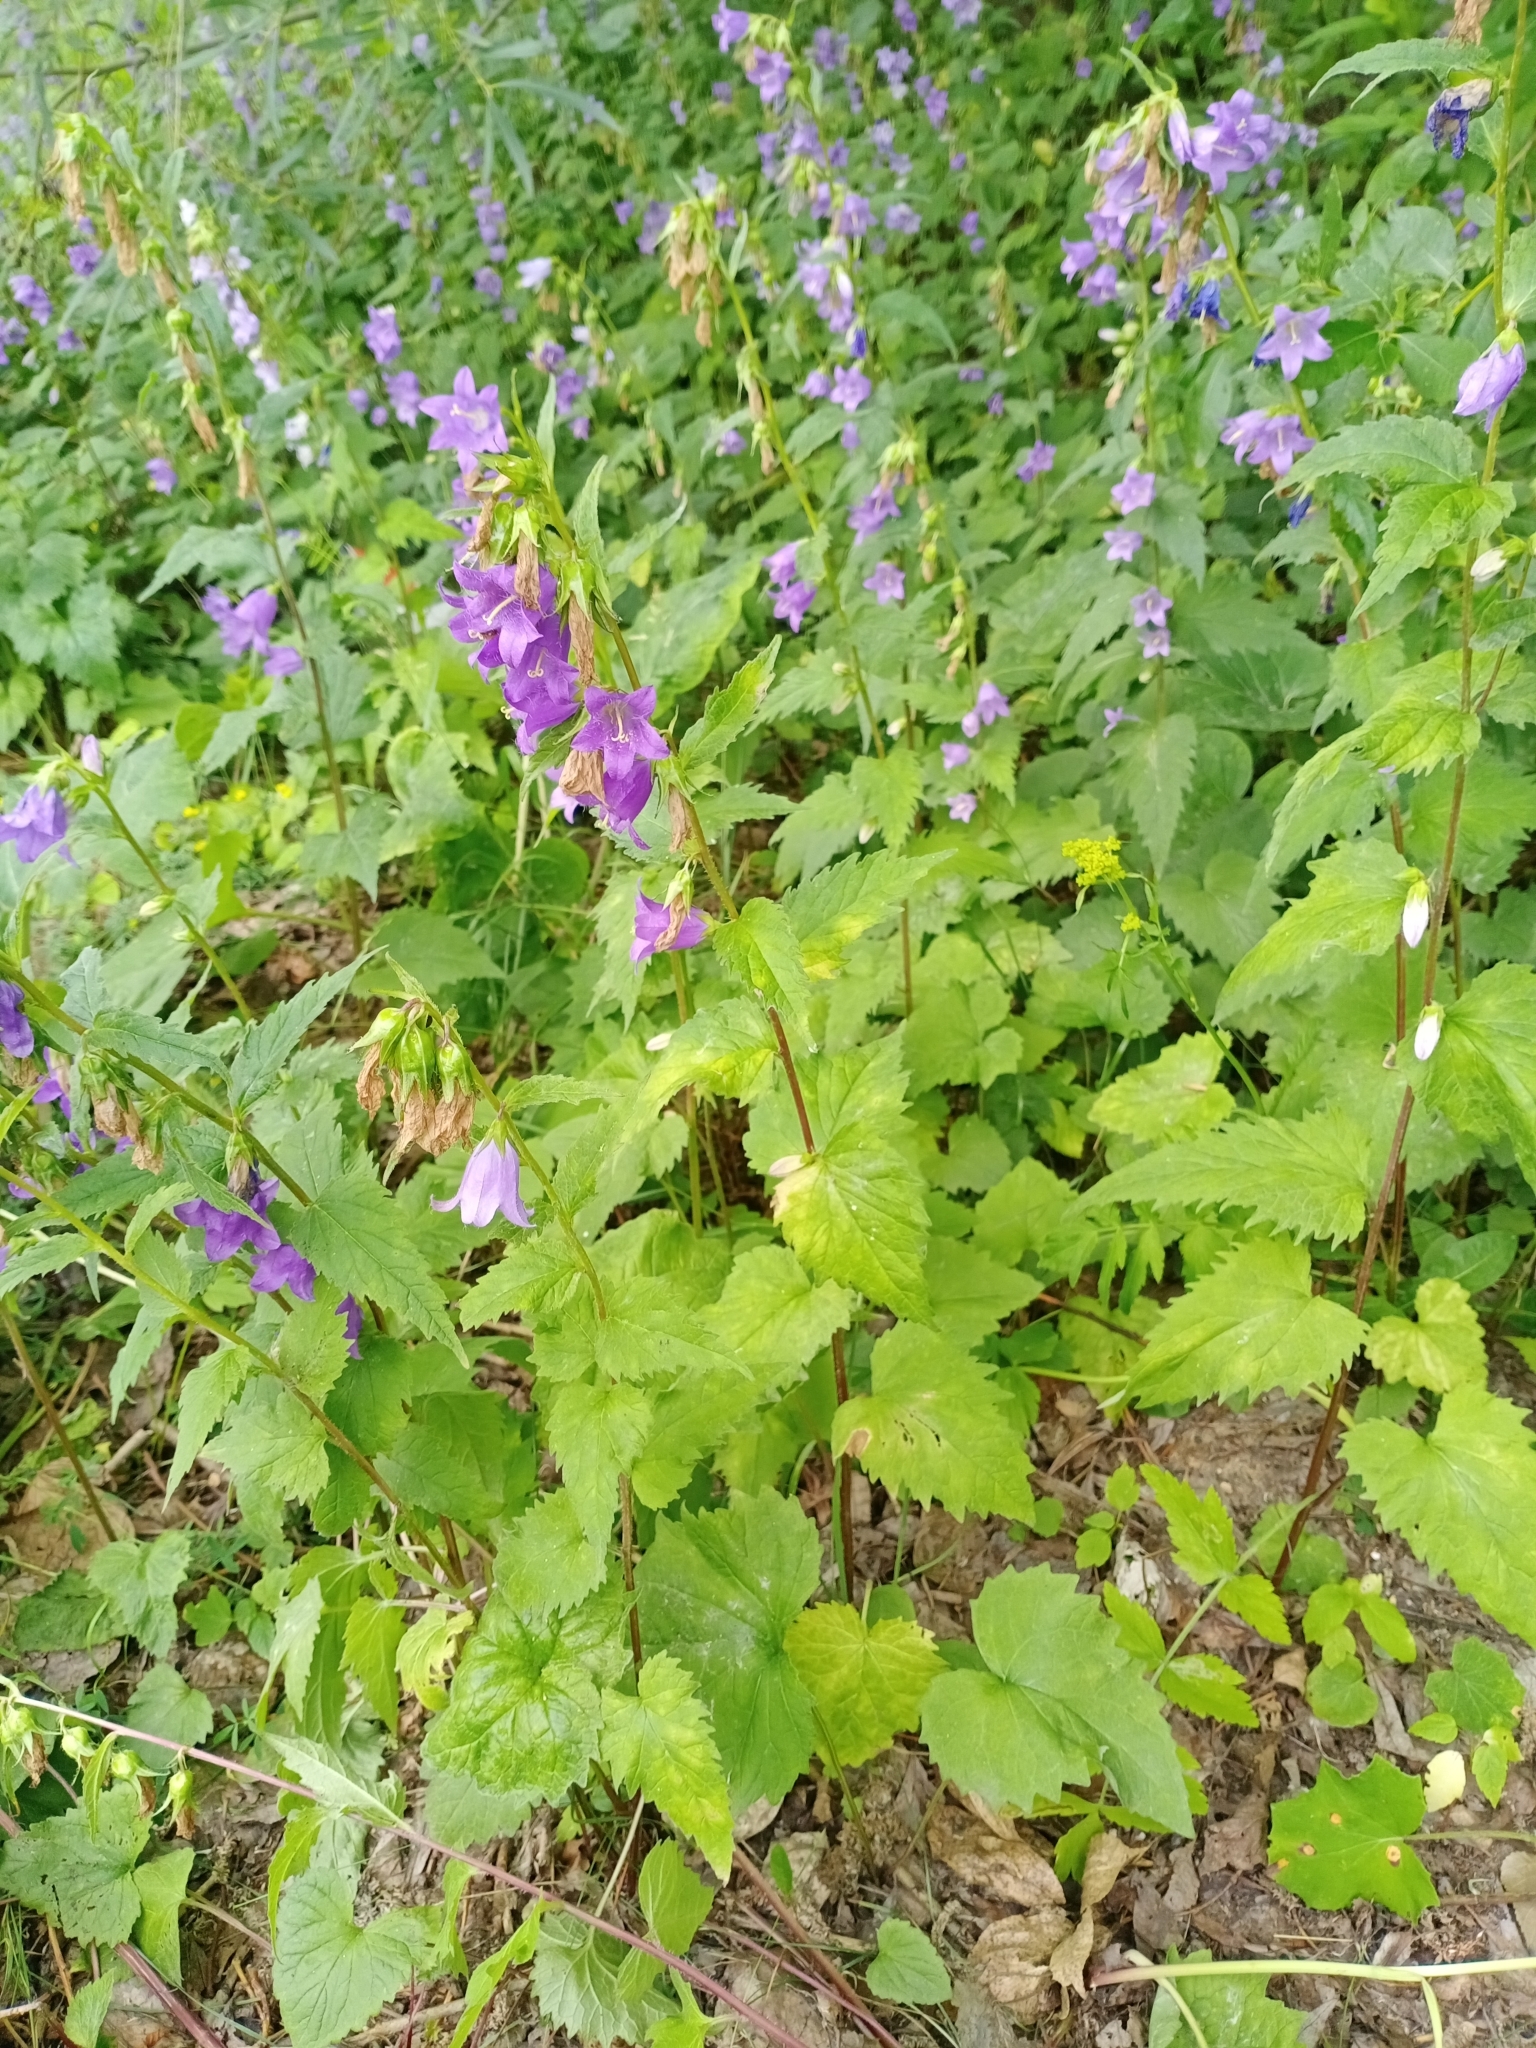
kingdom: Plantae
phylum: Tracheophyta
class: Magnoliopsida
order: Asterales
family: Campanulaceae
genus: Campanula
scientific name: Campanula trachelium
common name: Nettle-leaved bellflower
